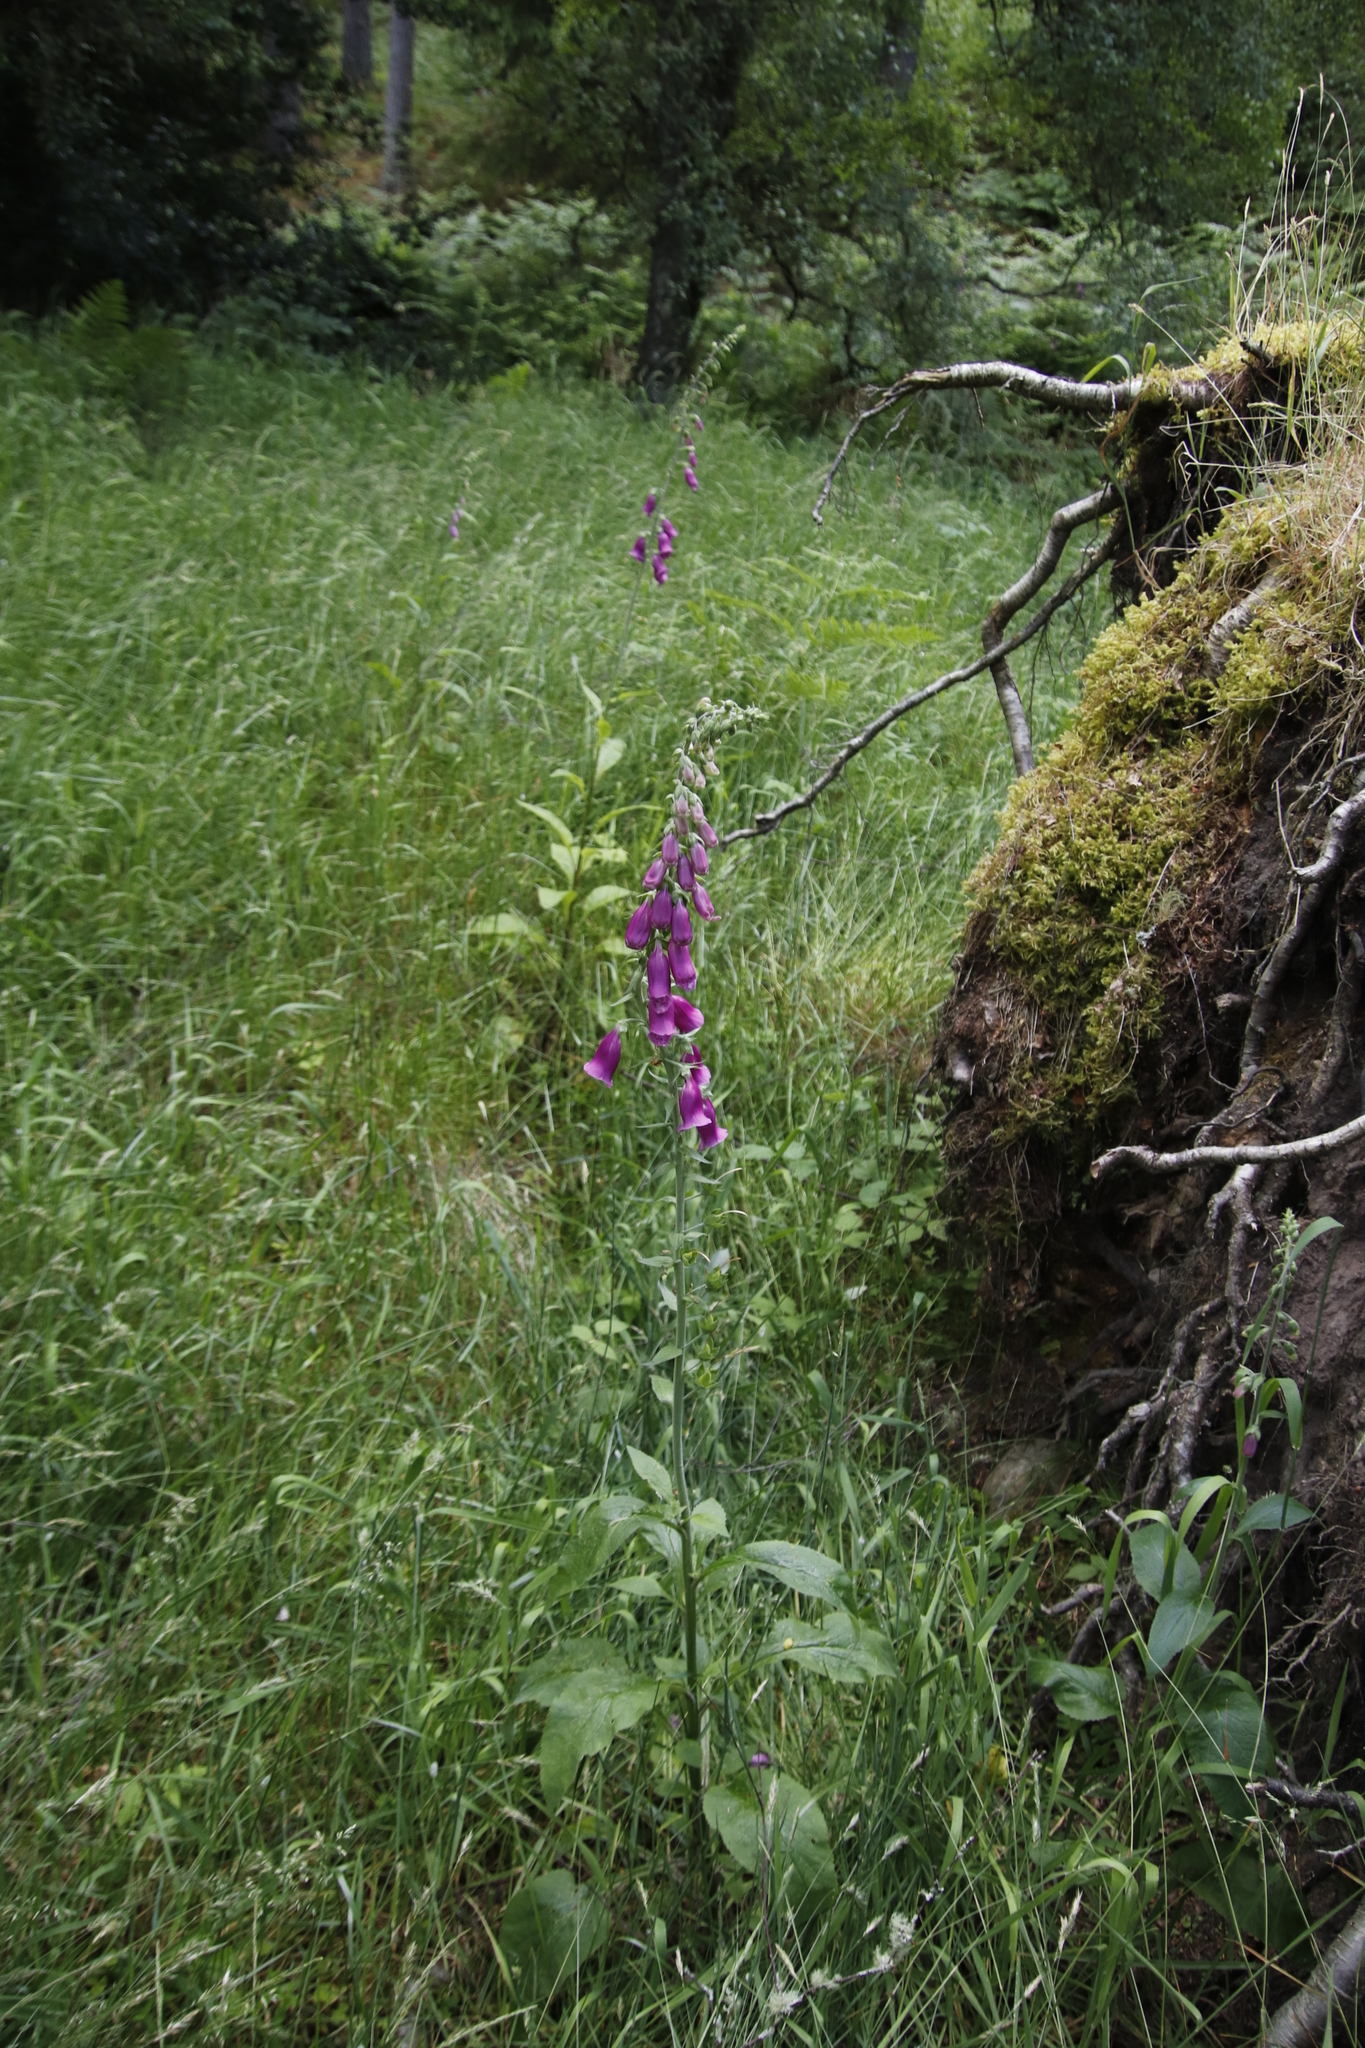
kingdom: Plantae
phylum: Tracheophyta
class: Magnoliopsida
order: Lamiales
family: Plantaginaceae
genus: Digitalis
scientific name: Digitalis purpurea
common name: Foxglove
